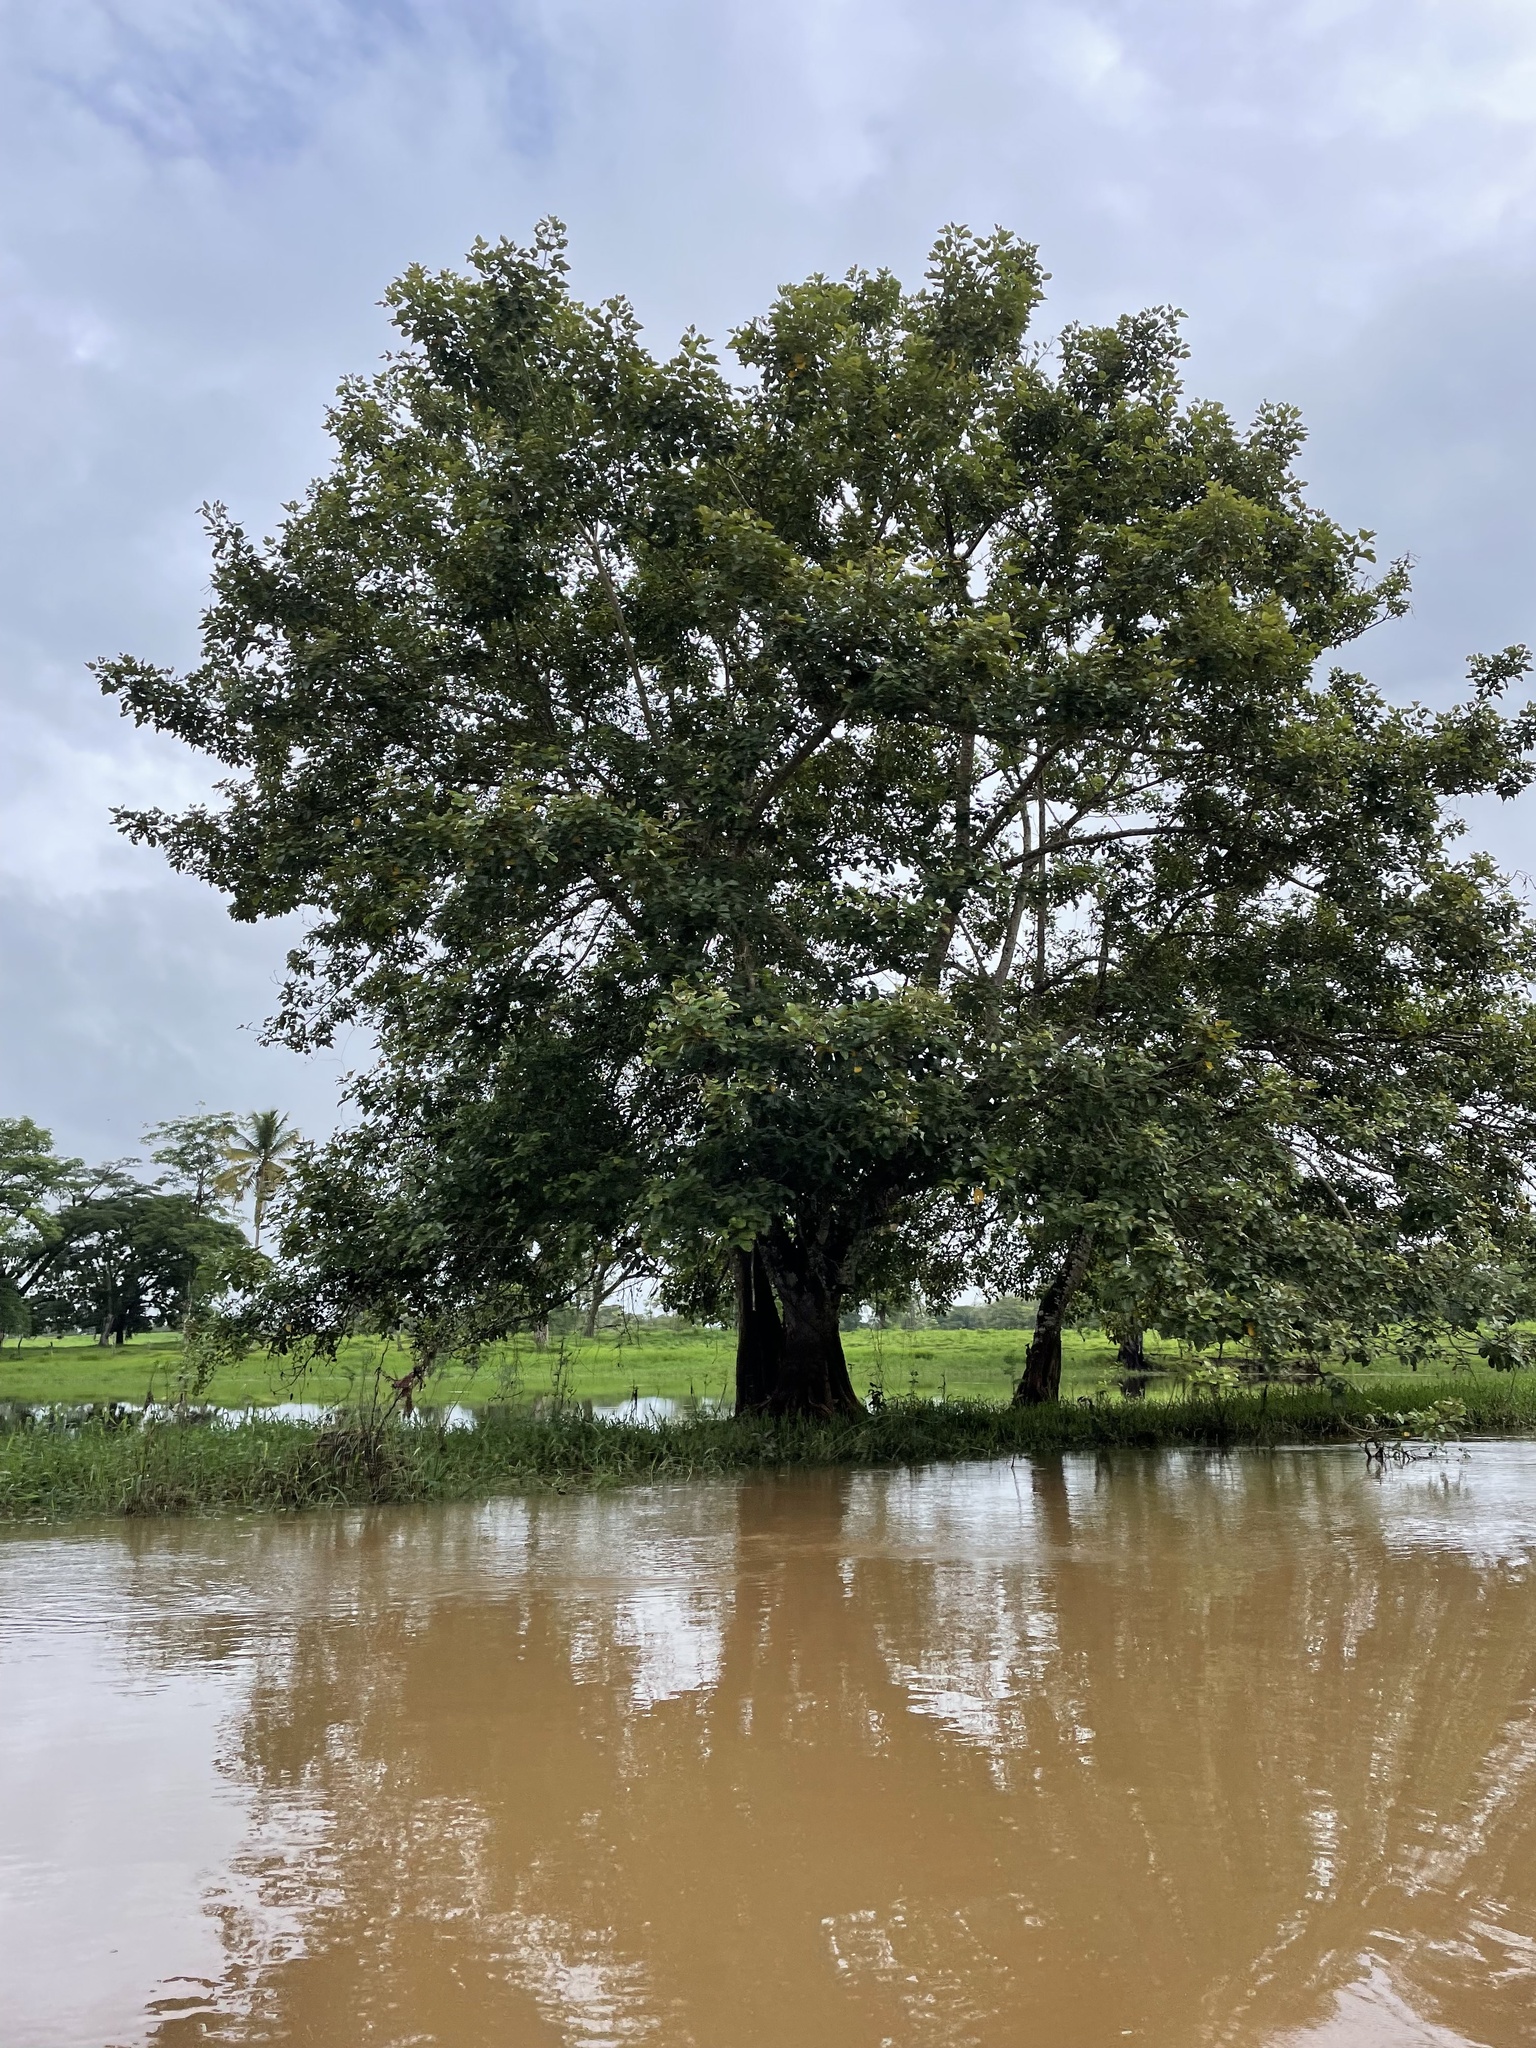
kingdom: Plantae
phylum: Tracheophyta
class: Magnoliopsida
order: Fabales
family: Fabaceae
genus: Erythrina
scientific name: Erythrina poeppigiana
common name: Coral tree
